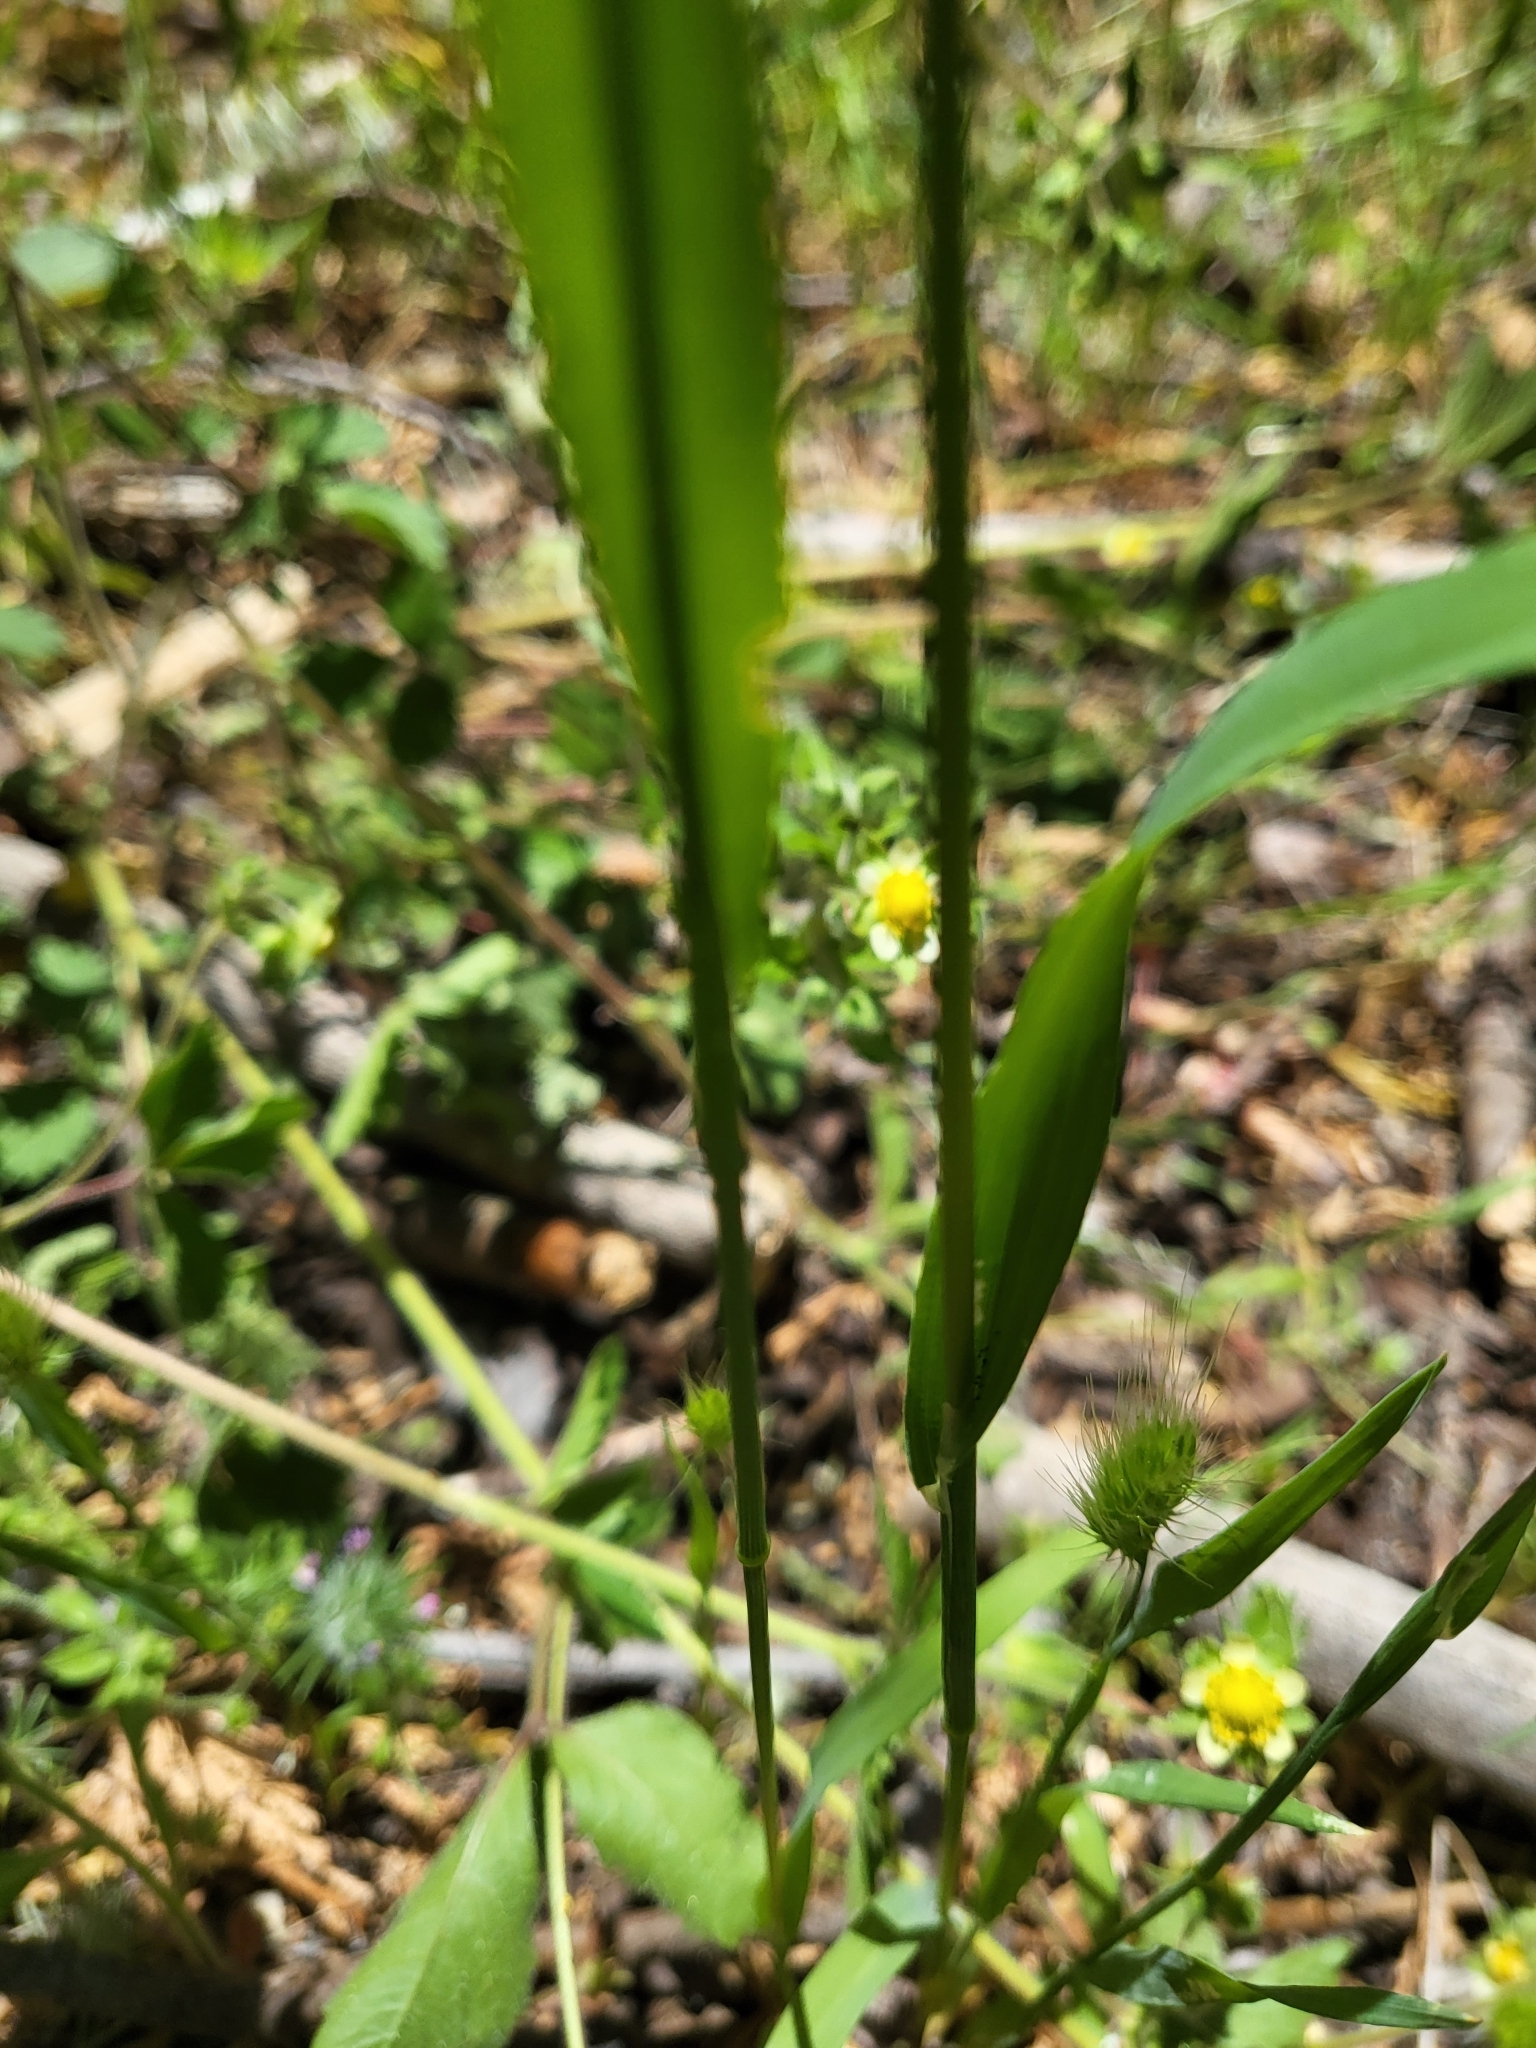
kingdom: Plantae
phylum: Tracheophyta
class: Liliopsida
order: Poales
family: Poaceae
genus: Cynosurus
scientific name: Cynosurus echinatus
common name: Rough dog's-tail
